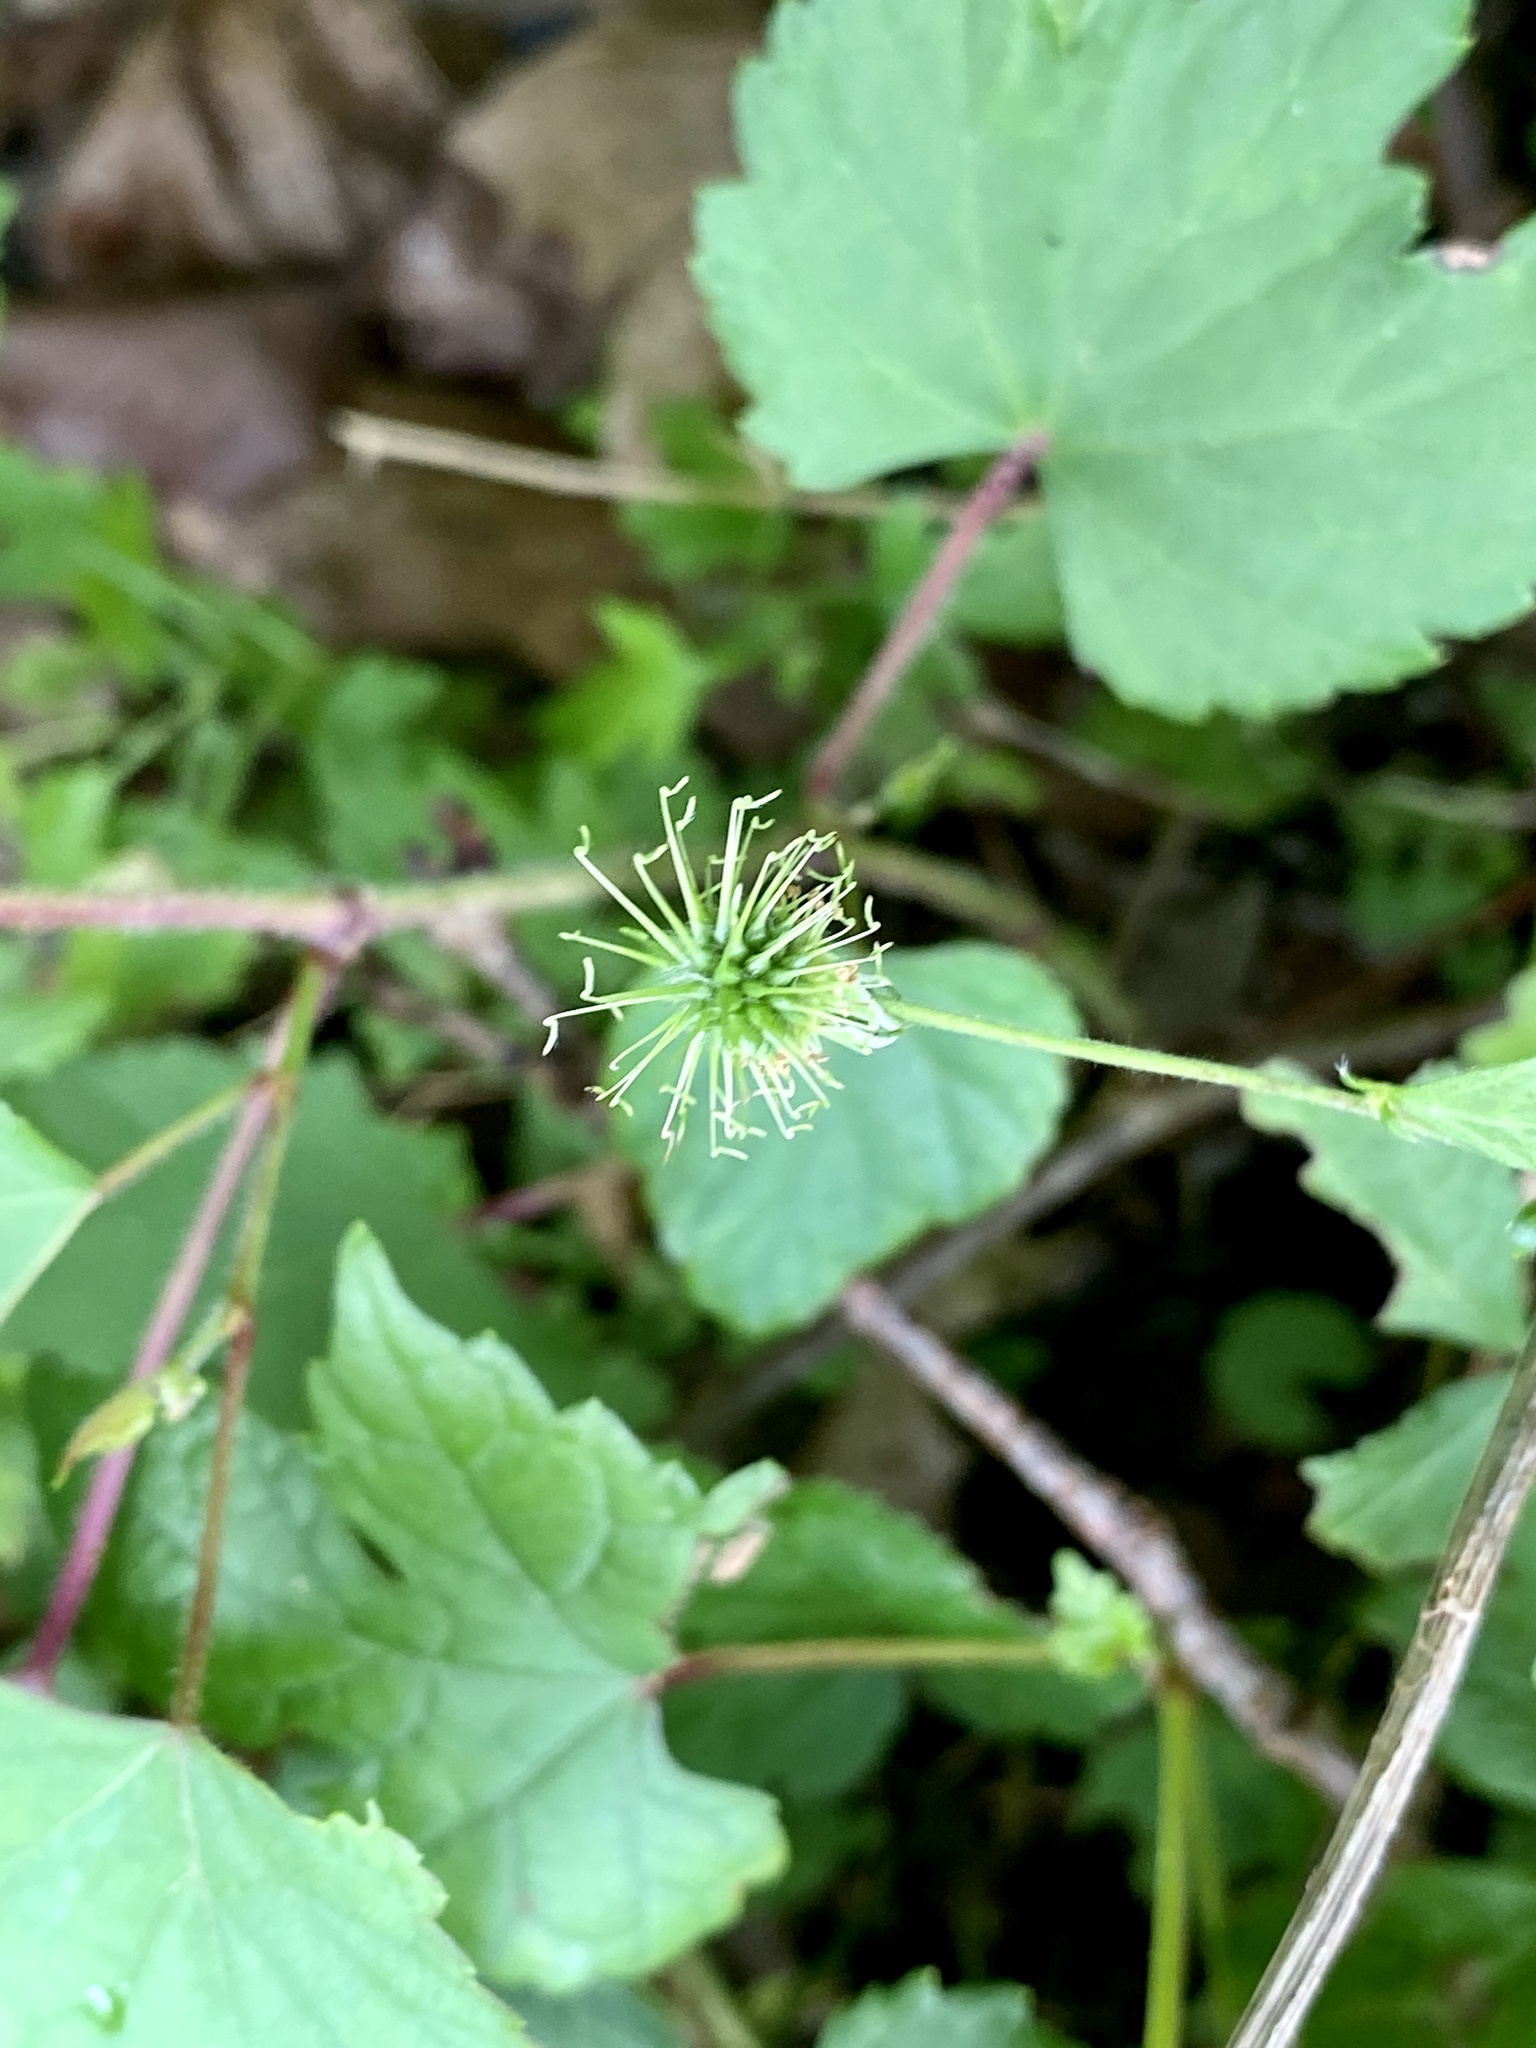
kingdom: Plantae
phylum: Tracheophyta
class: Magnoliopsida
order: Rosales
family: Rosaceae
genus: Geum
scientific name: Geum canadense
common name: White avens
